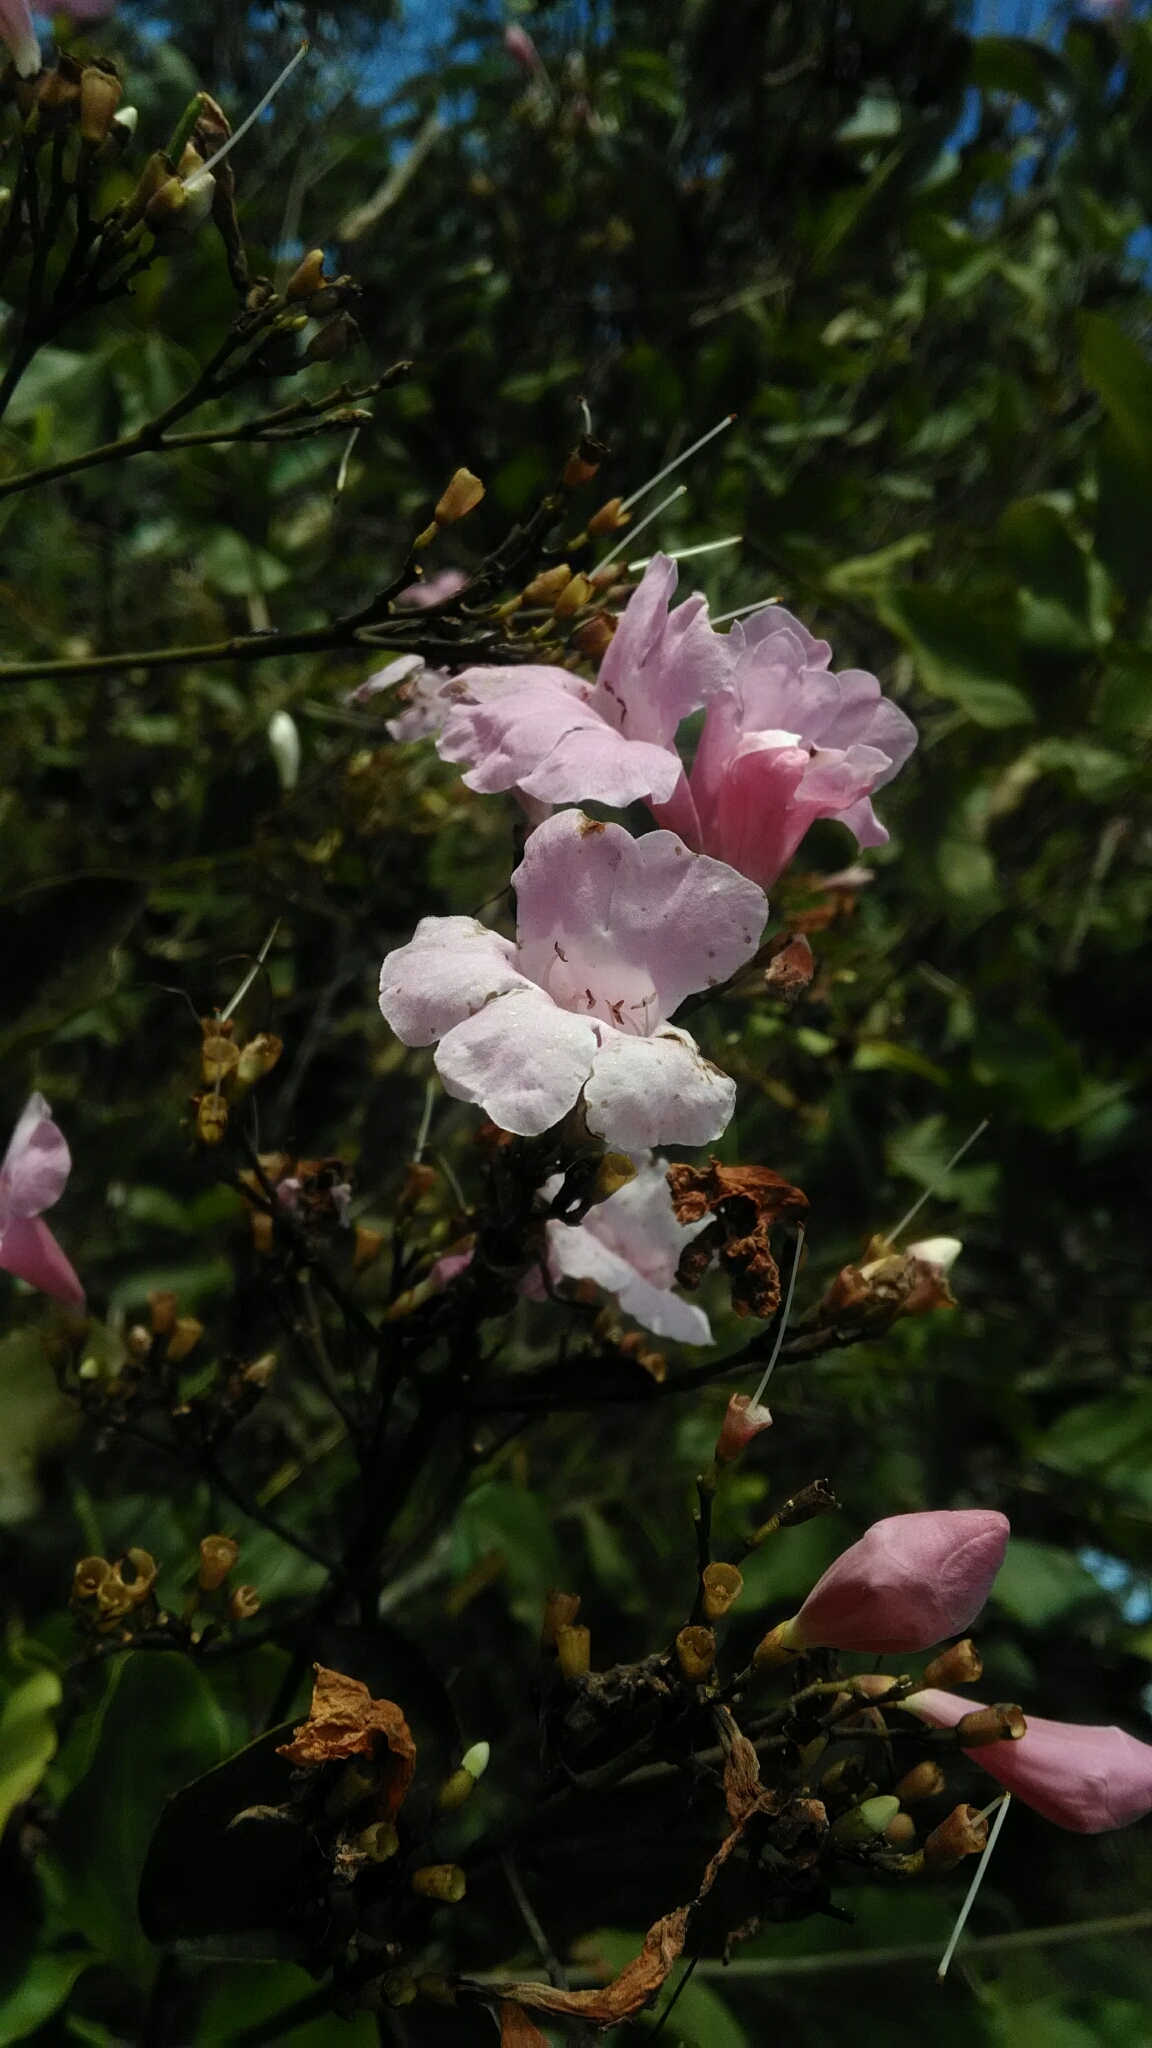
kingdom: Plantae
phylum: Tracheophyta
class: Magnoliopsida
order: Lamiales
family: Bignoniaceae
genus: Fridericia
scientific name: Fridericia platyphylla
